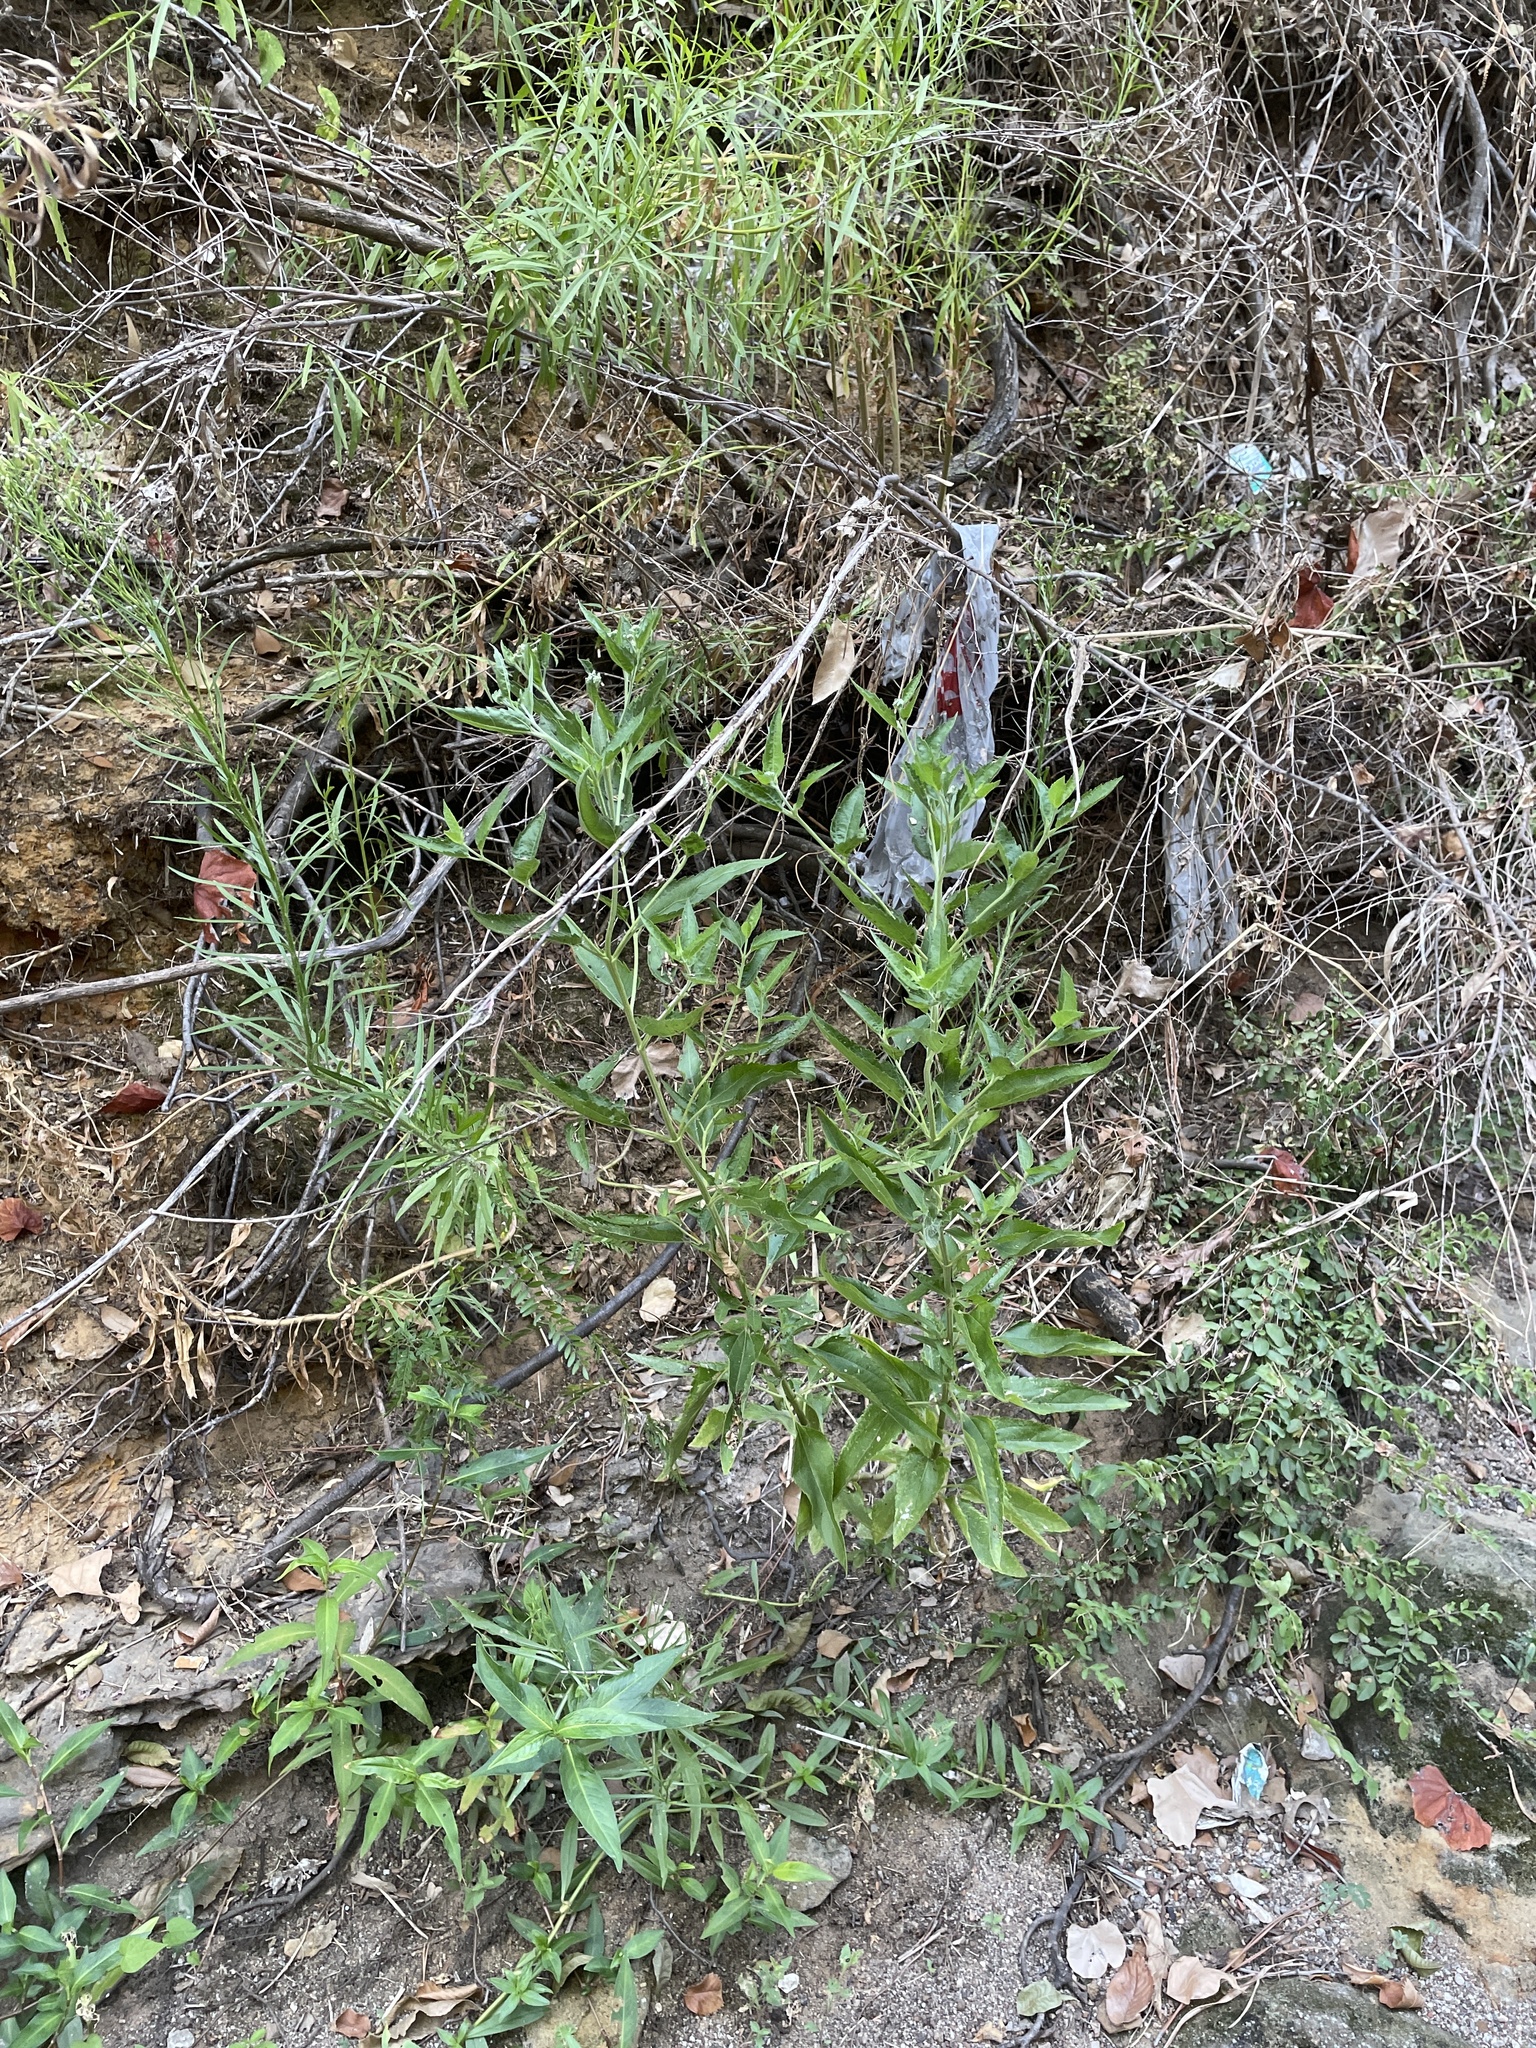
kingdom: Plantae
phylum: Tracheophyta
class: Magnoliopsida
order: Asterales
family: Asteraceae
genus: Eupatorium
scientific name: Eupatorium serotinum
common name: Late boneset
